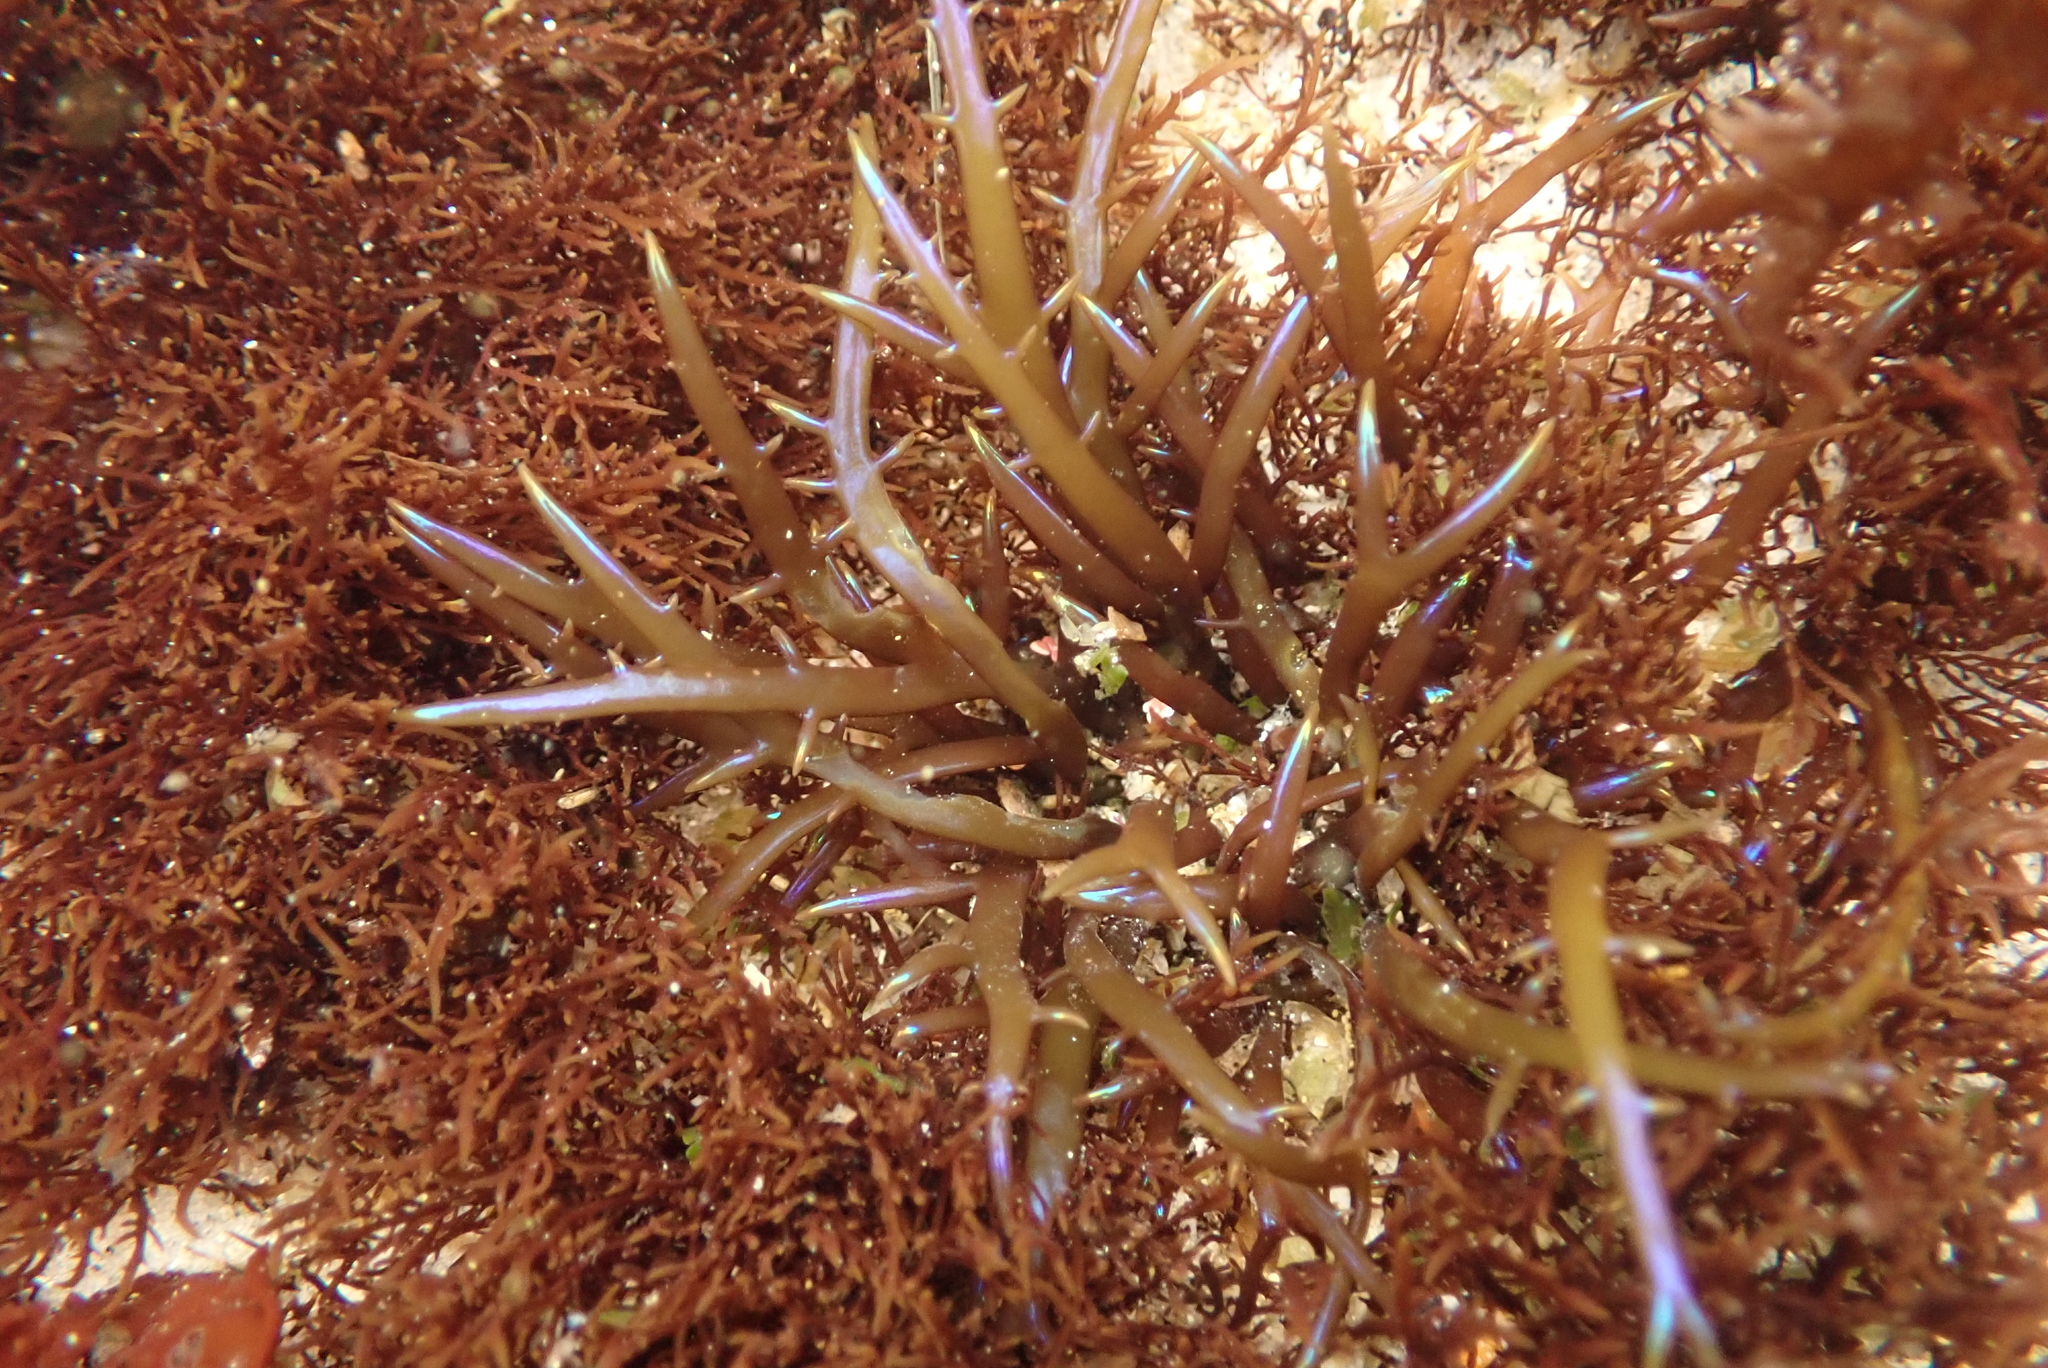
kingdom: Plantae
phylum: Rhodophyta
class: Florideophyceae
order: Gigartinales
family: Gigartinaceae
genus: Chondracanthus
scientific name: Chondracanthus canaliculatus
